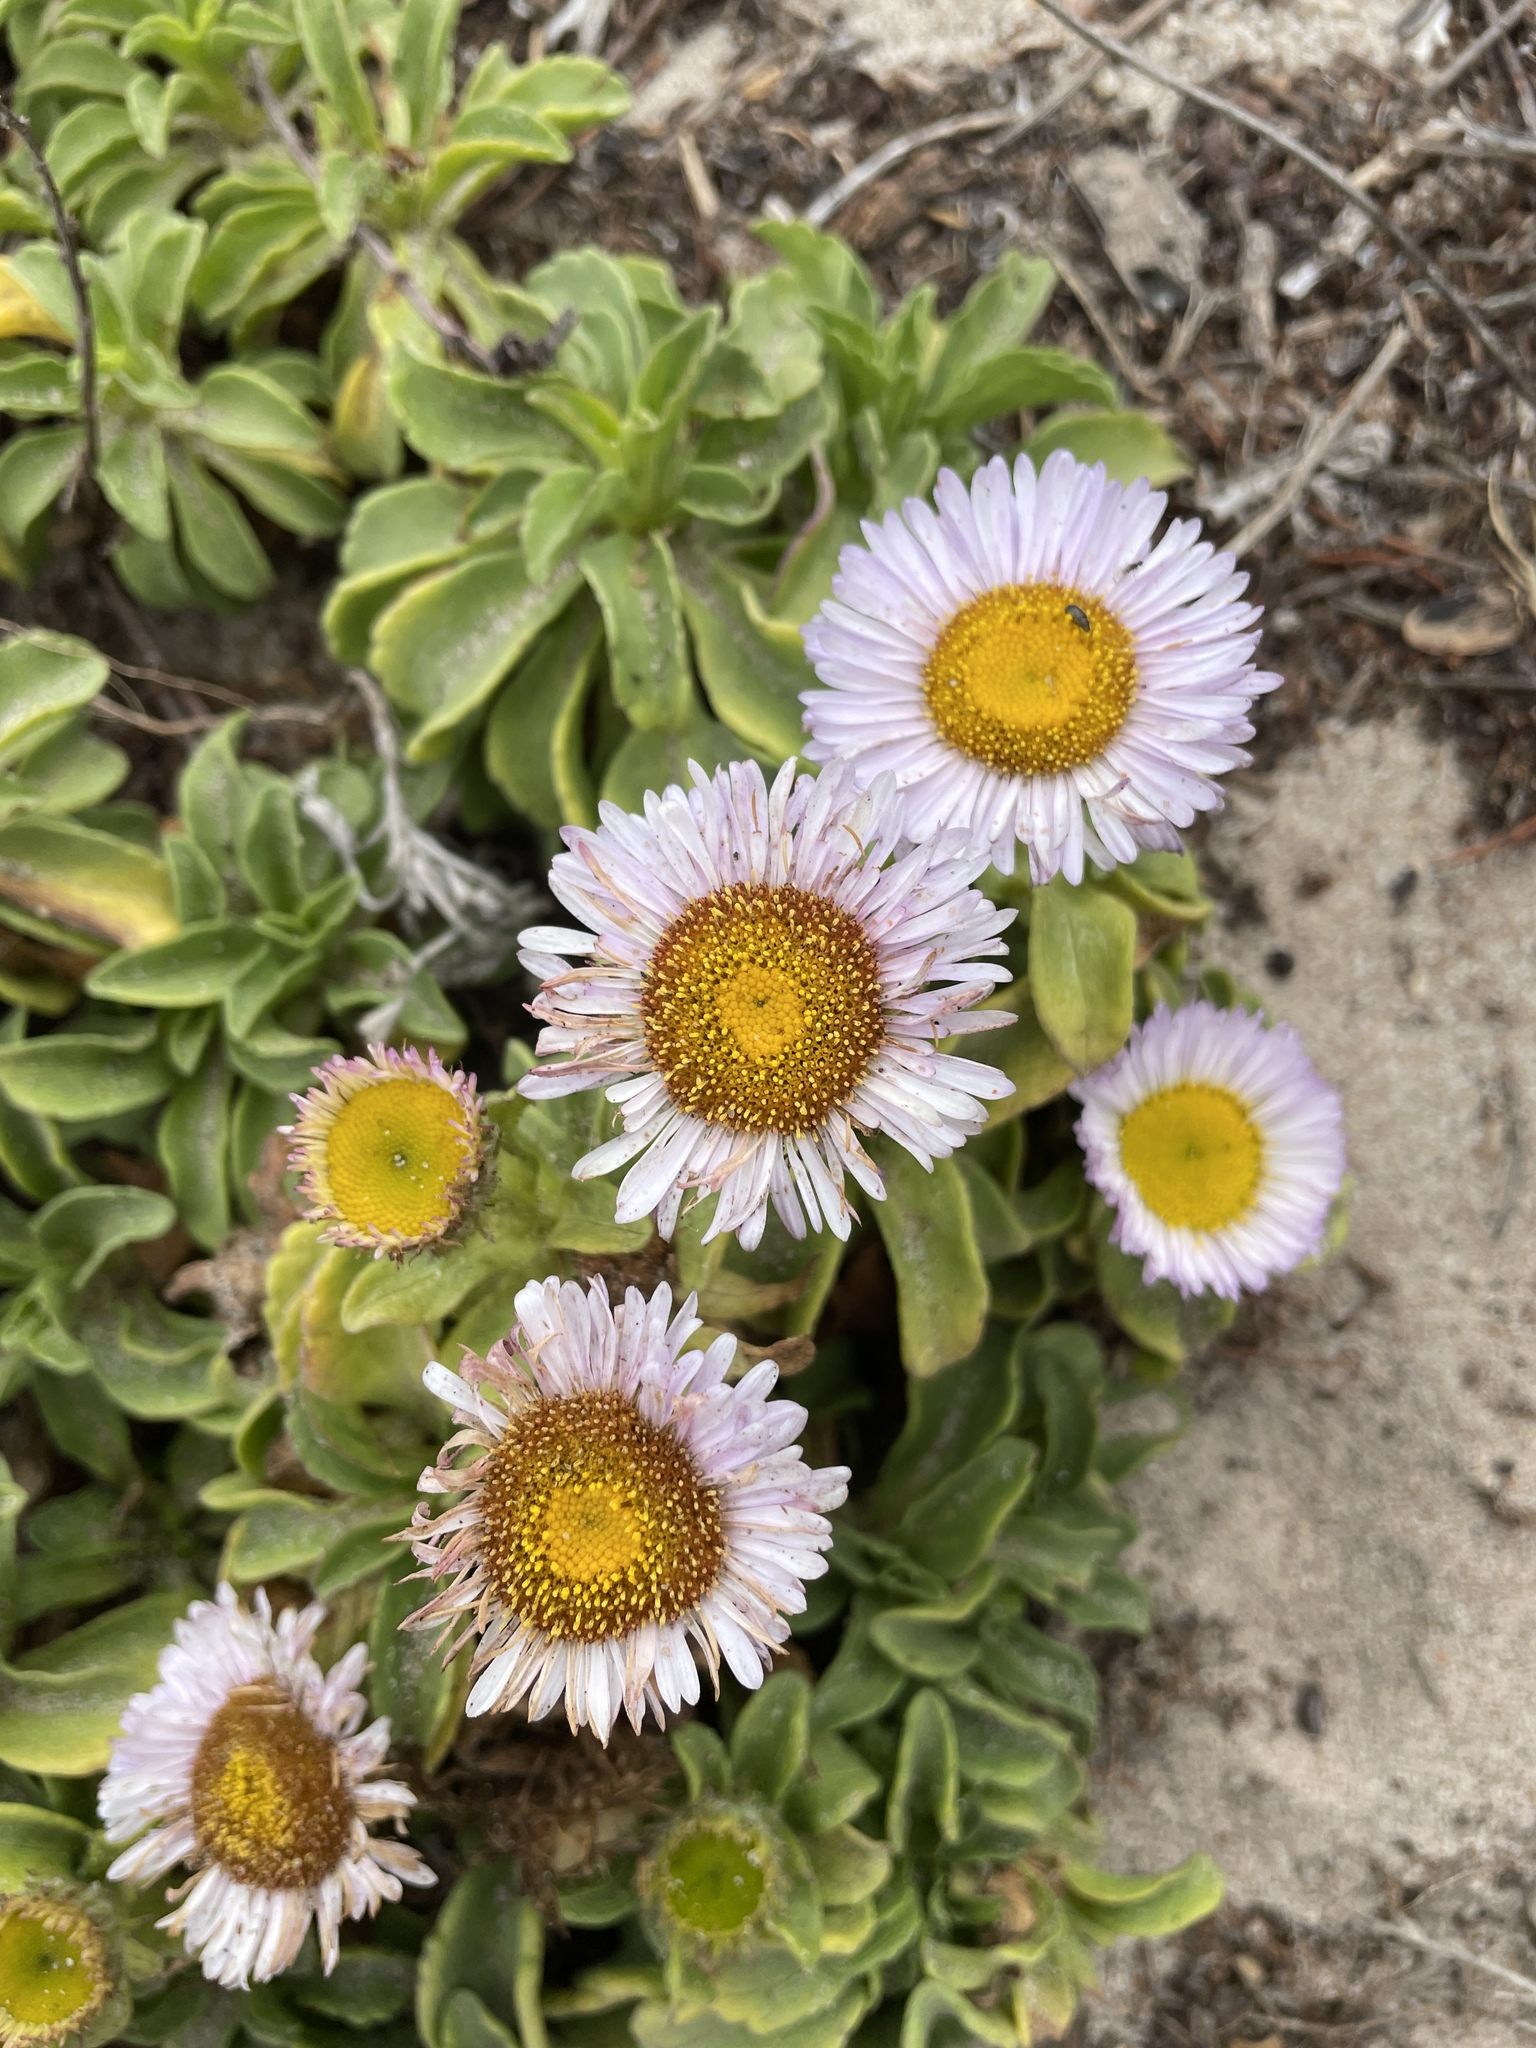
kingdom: Plantae
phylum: Tracheophyta
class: Magnoliopsida
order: Asterales
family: Asteraceae
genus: Erigeron
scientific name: Erigeron glaucus
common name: Seaside daisy
